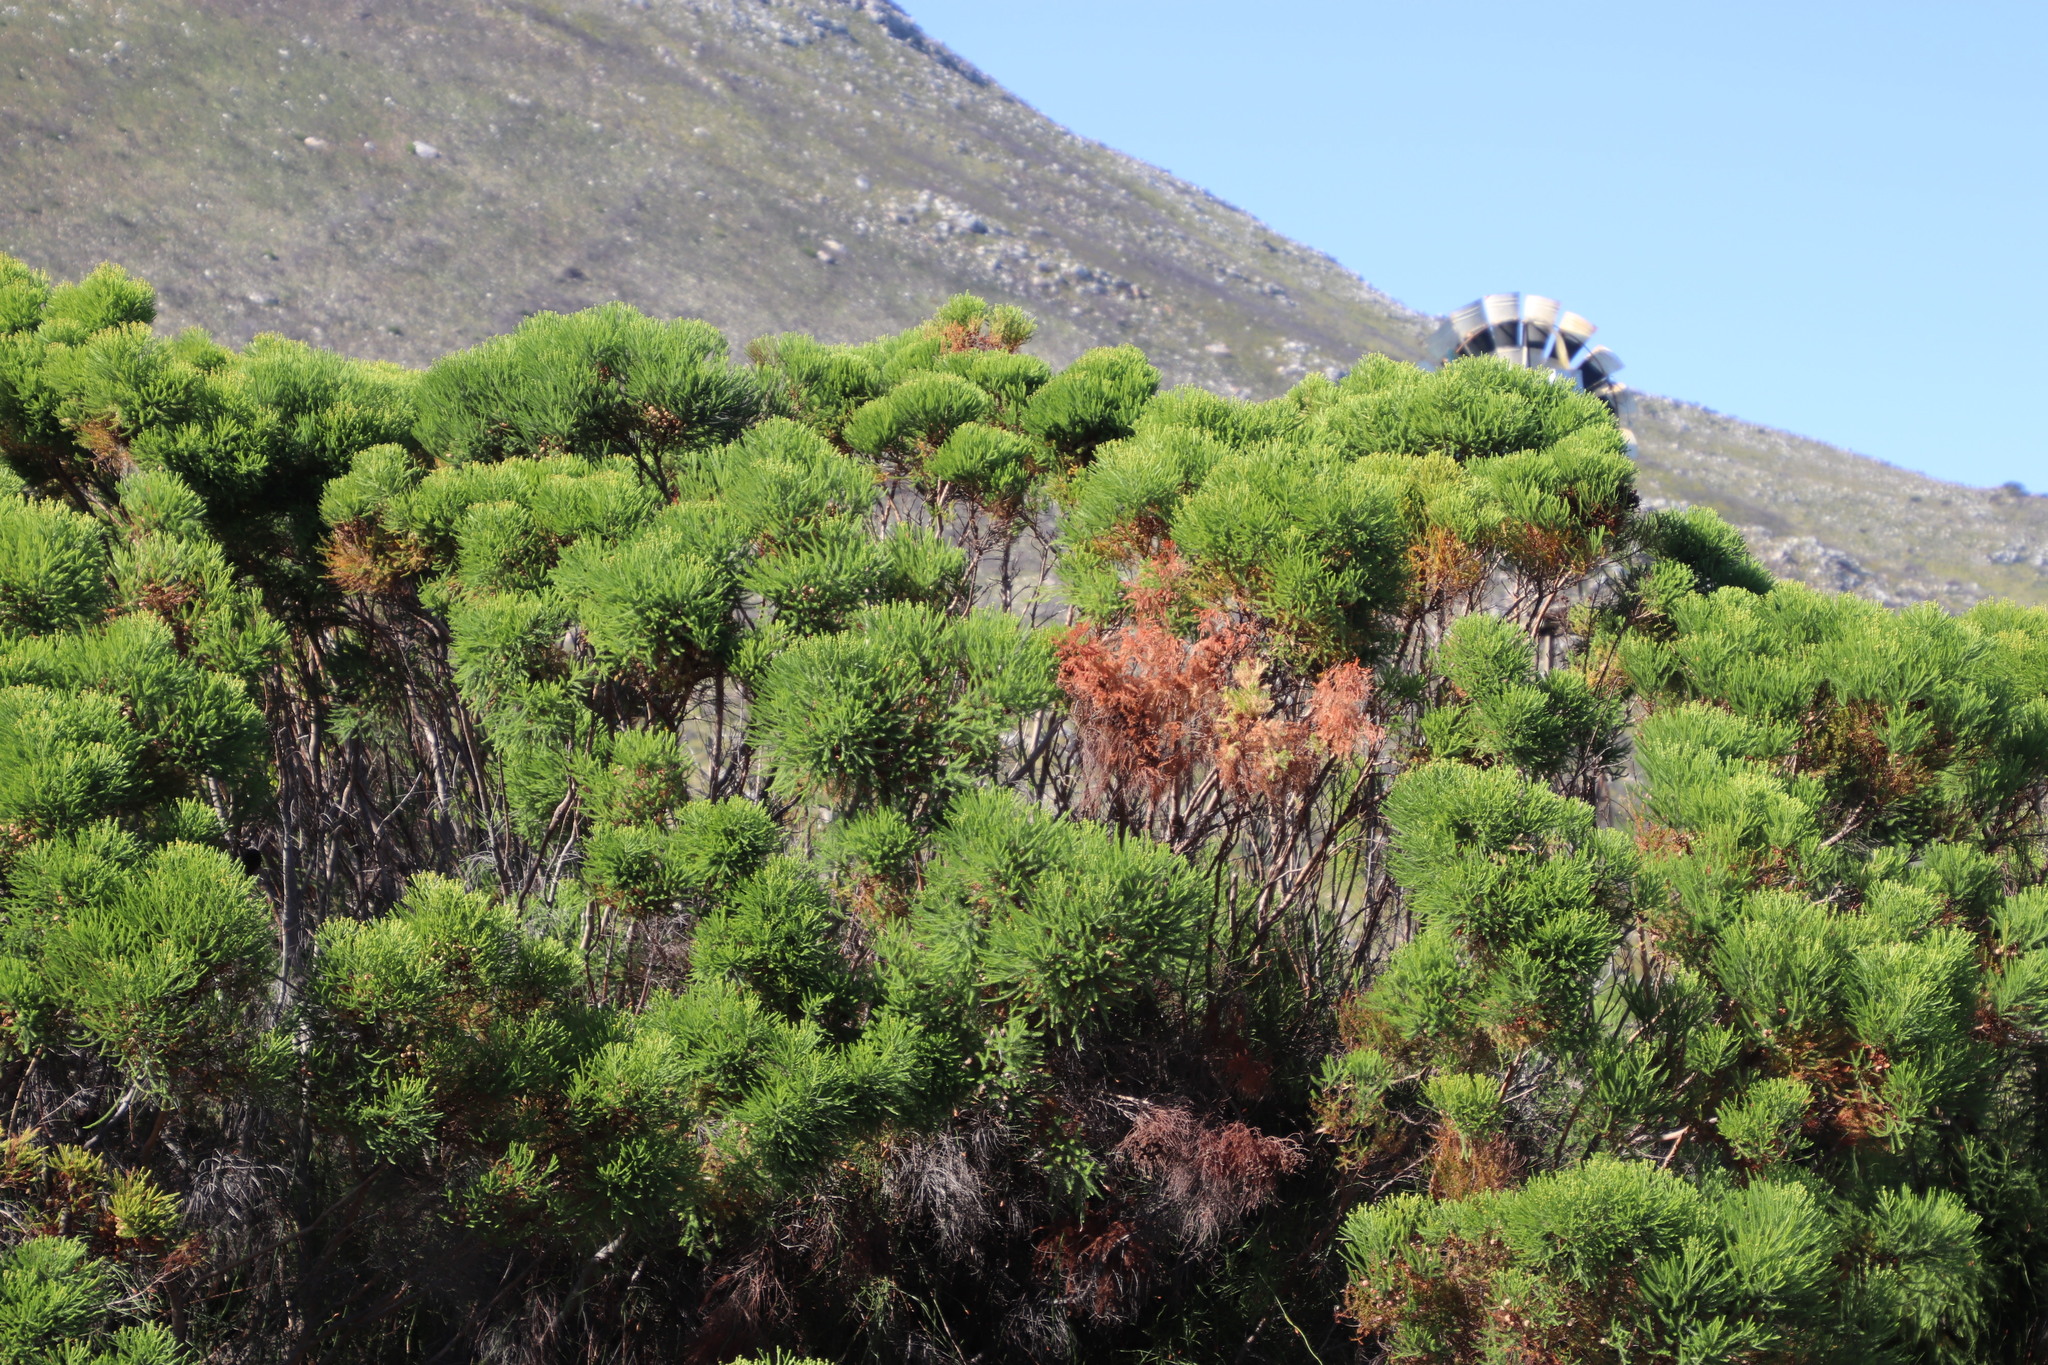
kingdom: Plantae
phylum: Tracheophyta
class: Magnoliopsida
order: Bruniales
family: Bruniaceae
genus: Berzelia
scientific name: Berzelia lanuginosa
